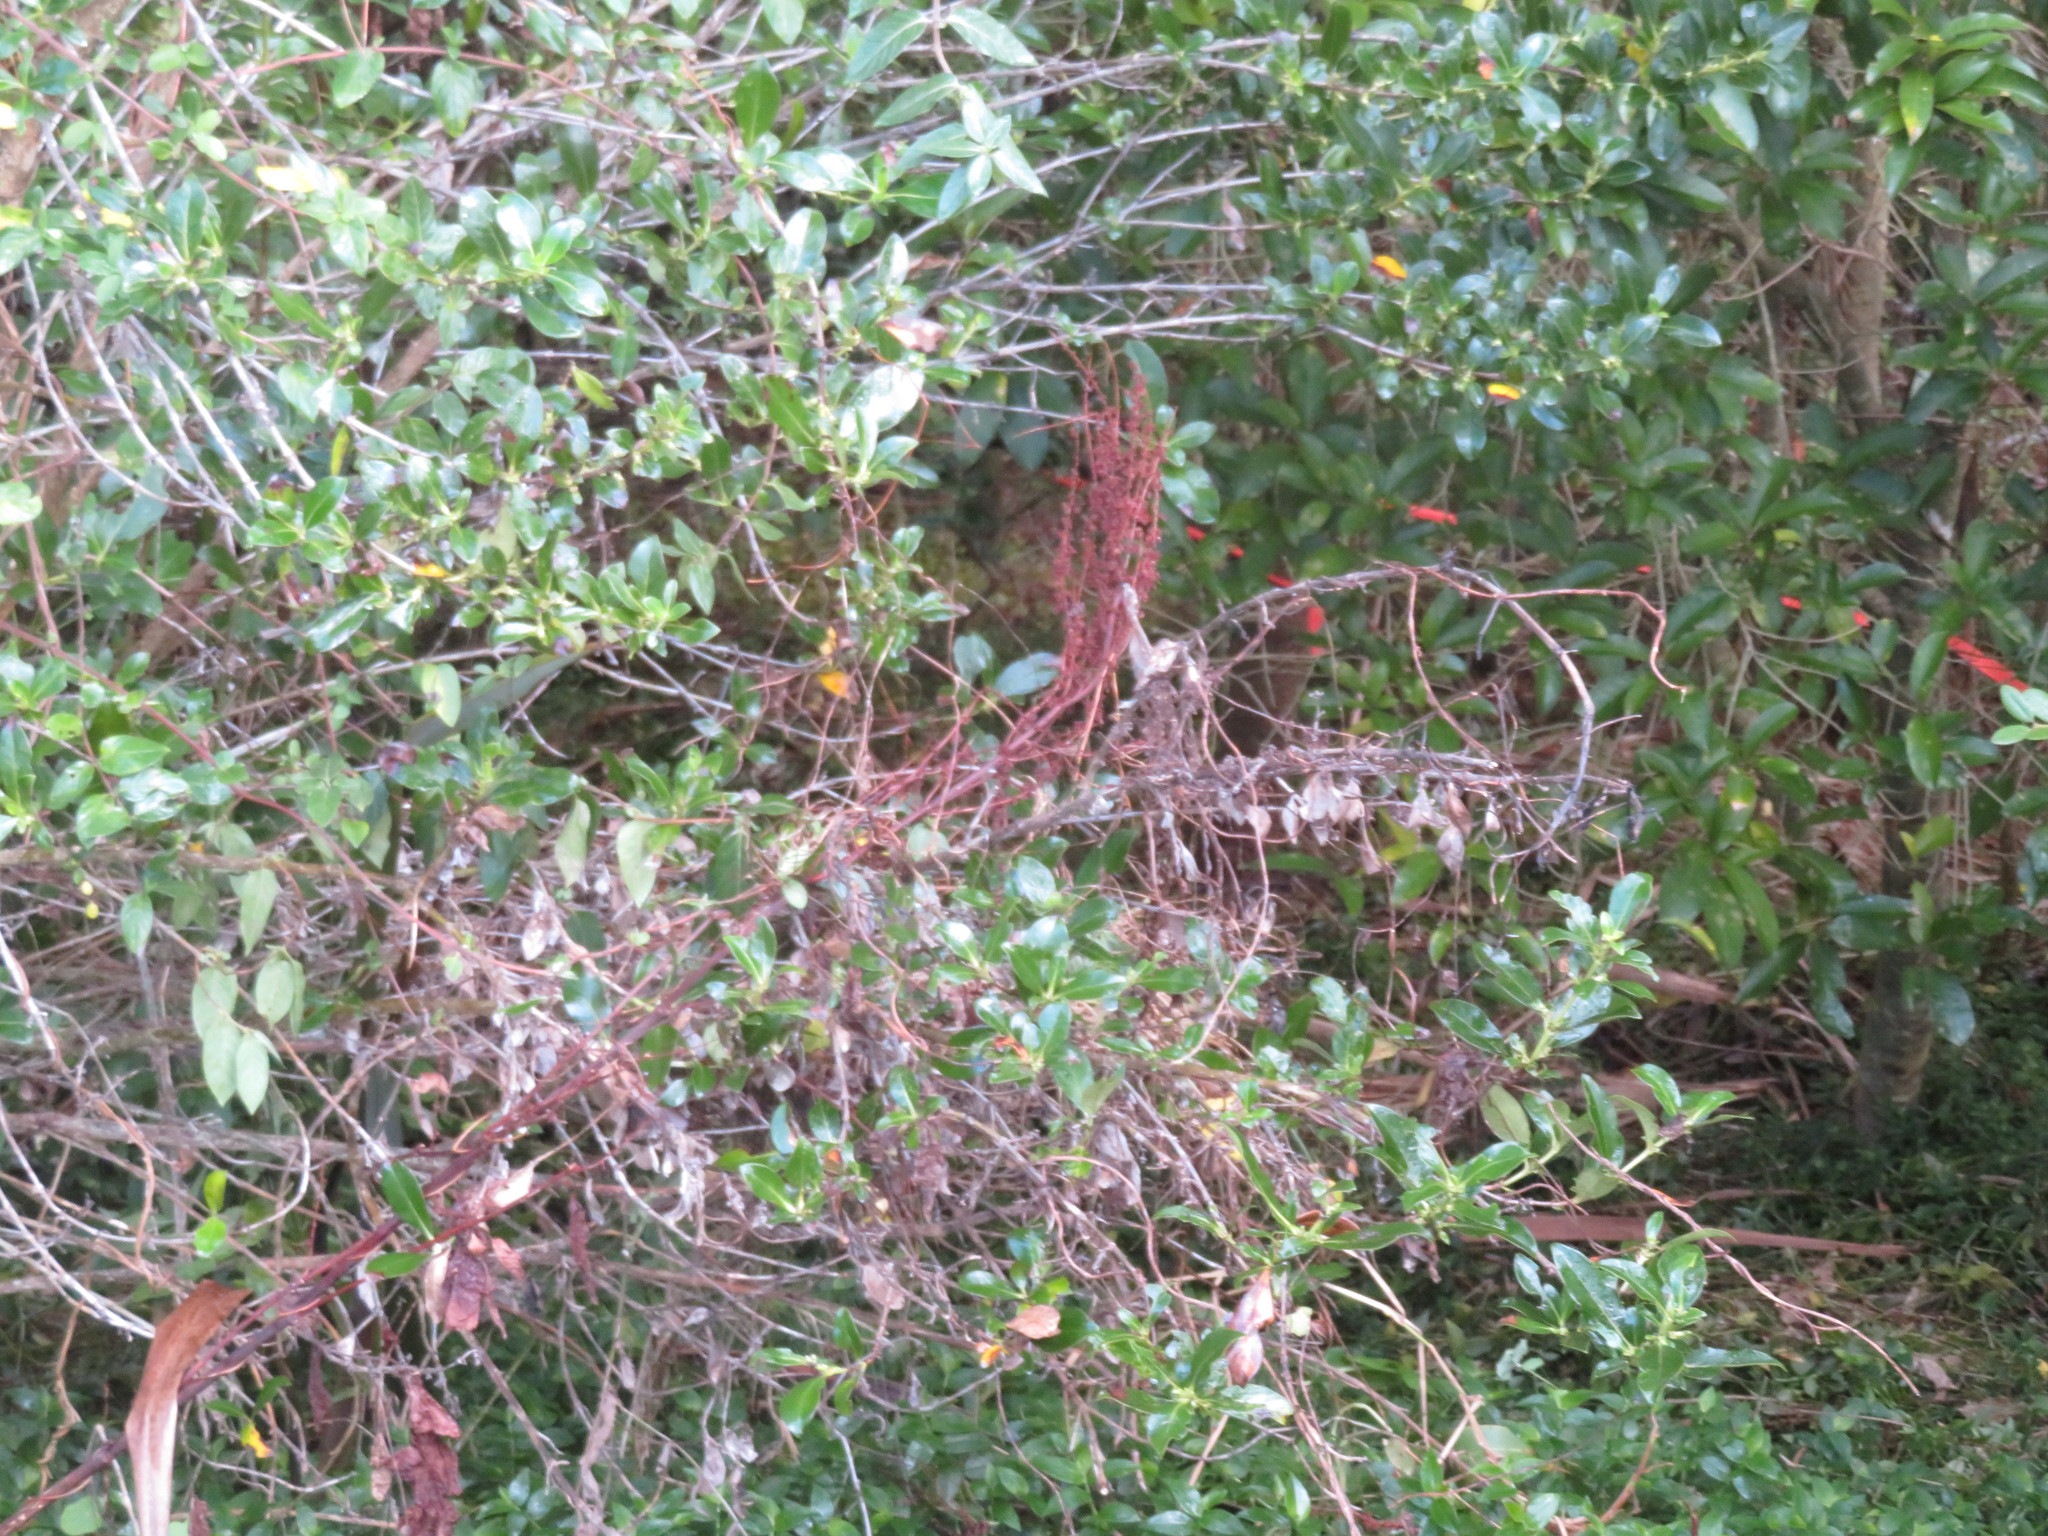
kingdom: Plantae
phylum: Tracheophyta
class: Liliopsida
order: Commelinales
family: Commelinaceae
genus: Tradescantia
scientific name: Tradescantia fluminensis
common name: Wandering-jew
